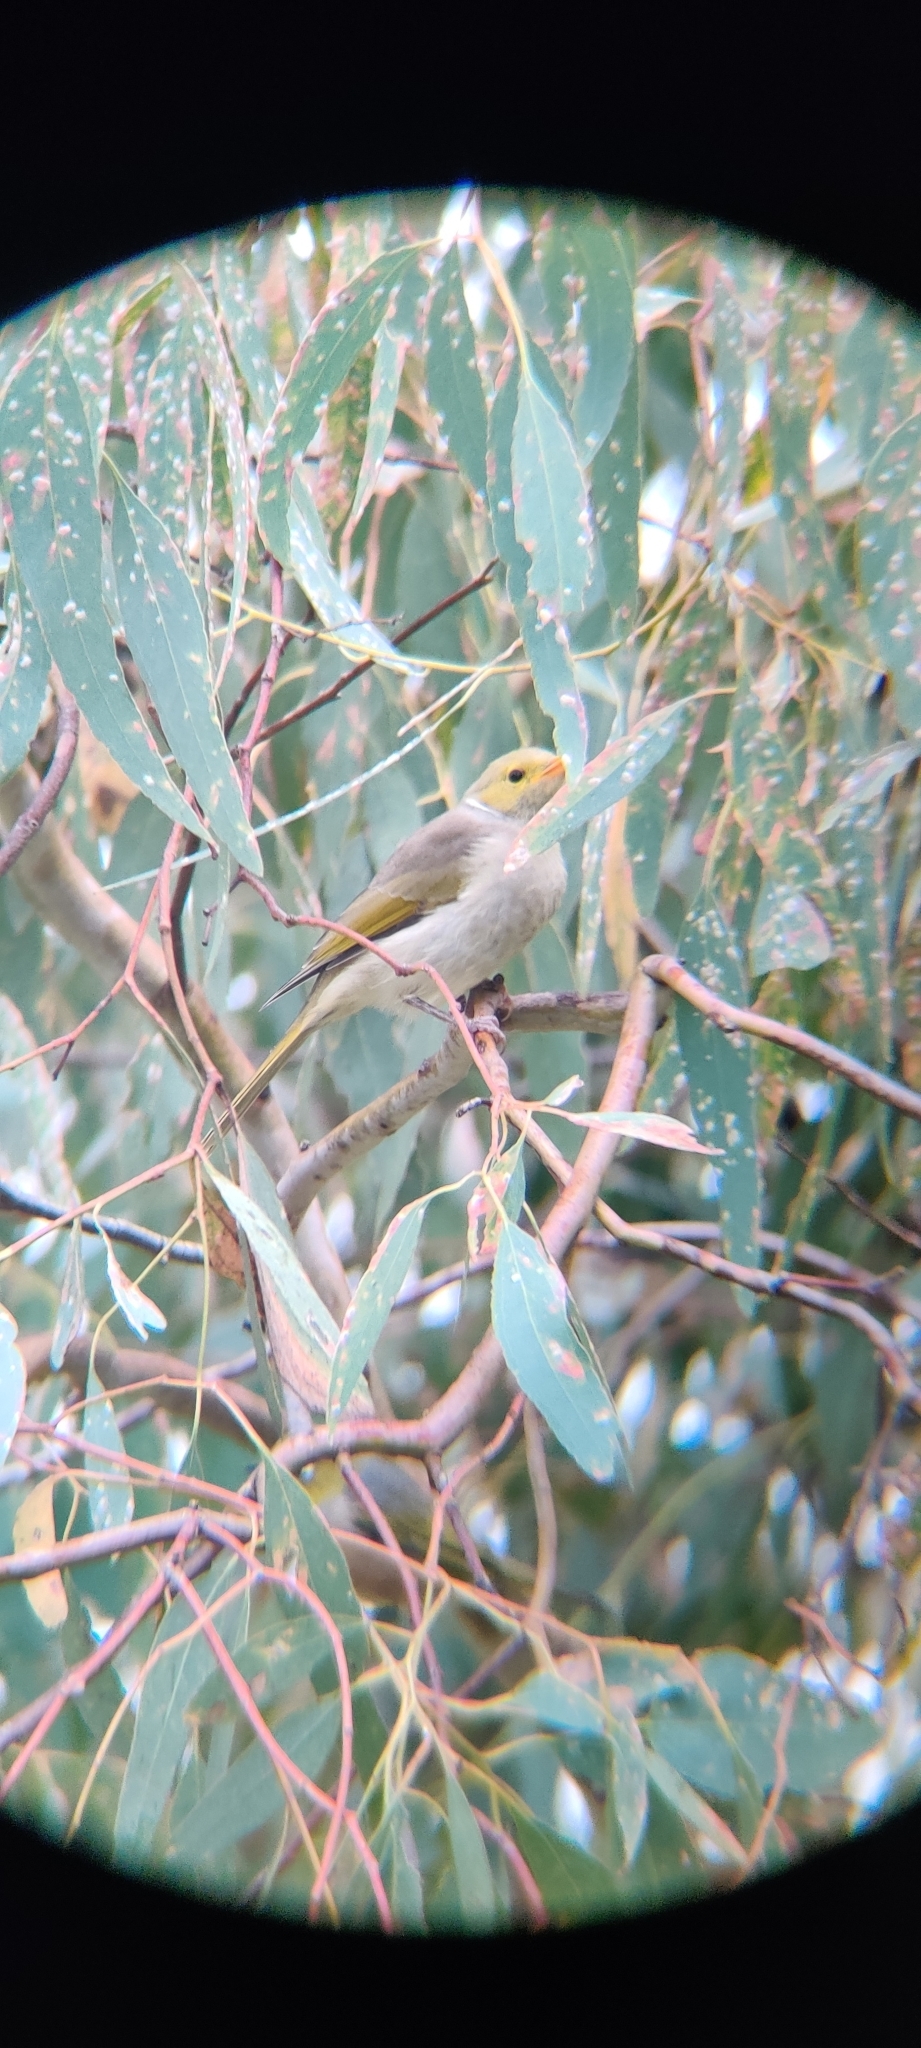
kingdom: Animalia
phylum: Chordata
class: Aves
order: Passeriformes
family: Meliphagidae
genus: Ptilotula
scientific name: Ptilotula penicillata
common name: White-plumed honeyeater
